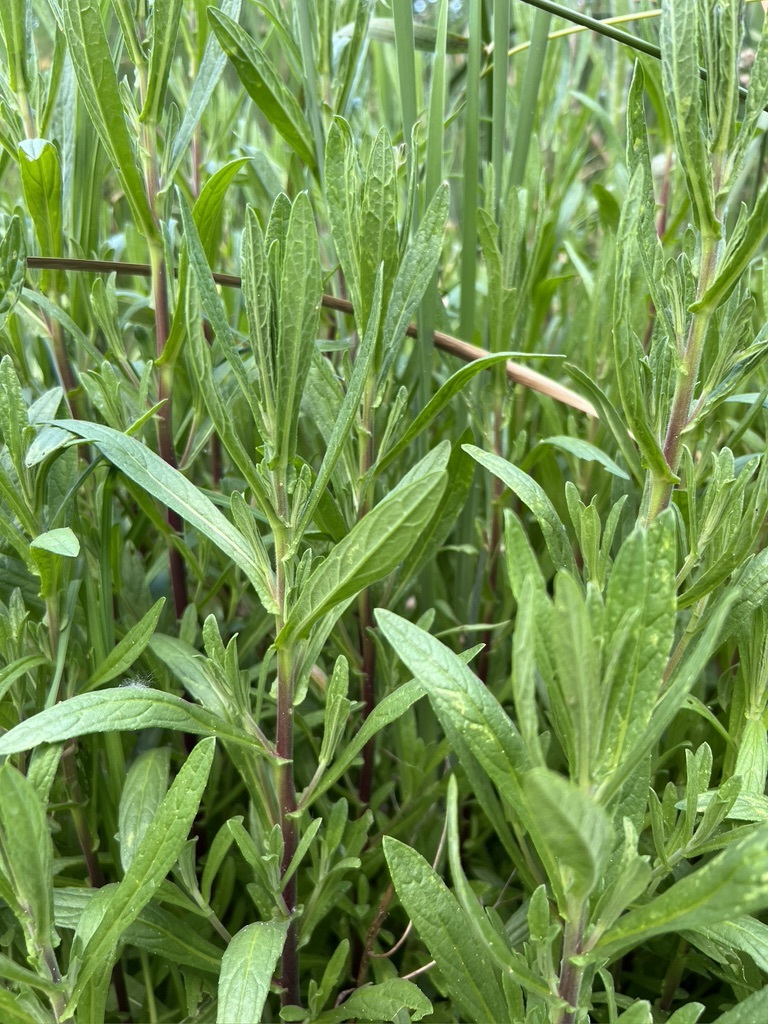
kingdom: Plantae
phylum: Tracheophyta
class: Magnoliopsida
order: Asterales
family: Asteraceae
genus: Pulicaria
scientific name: Pulicaria paludosa
